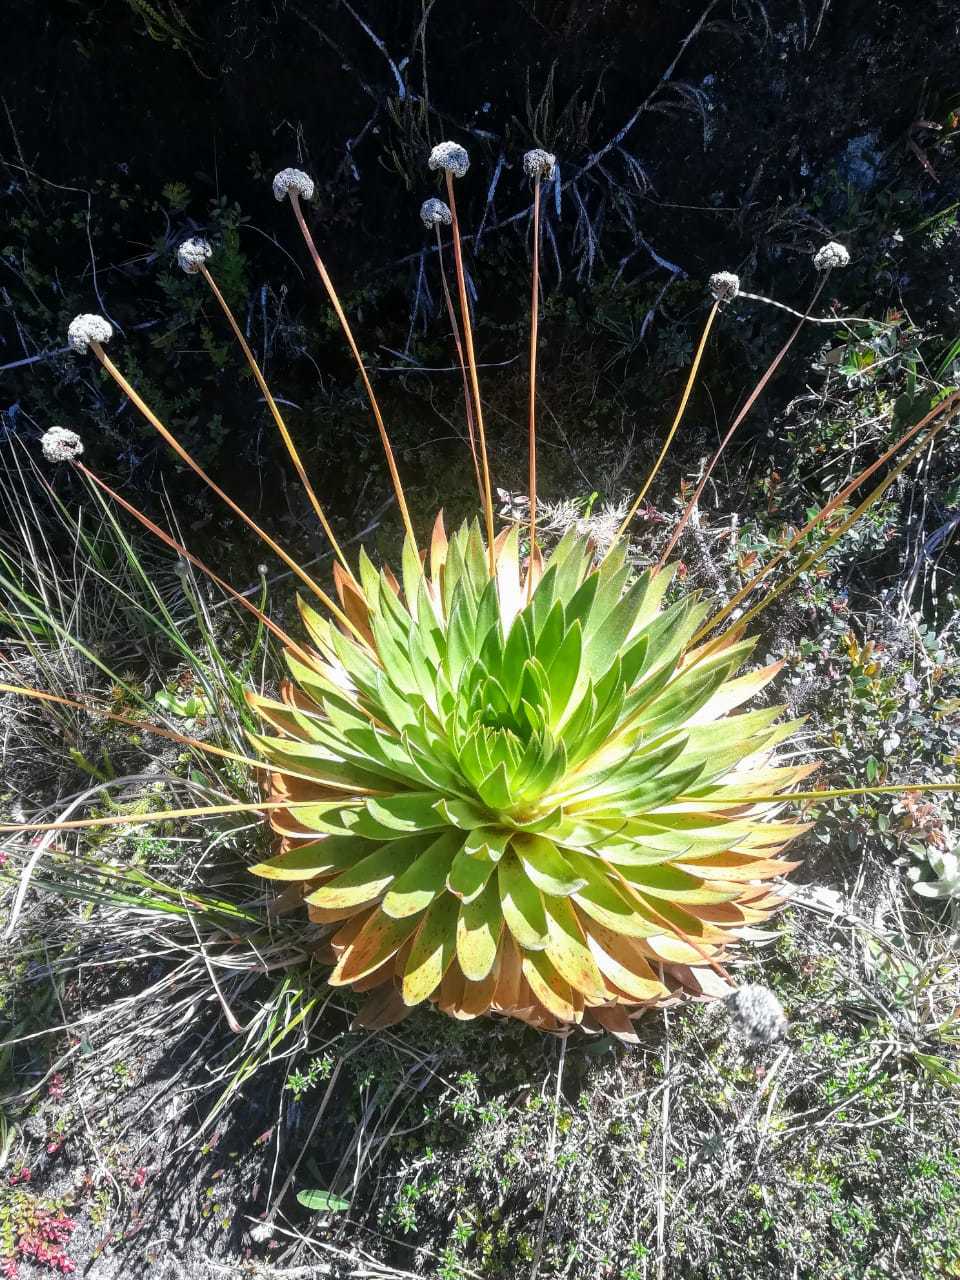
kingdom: Plantae
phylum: Tracheophyta
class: Liliopsida
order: Poales
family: Eriocaulaceae
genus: Paepalanthus
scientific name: Paepalanthus alpinus
